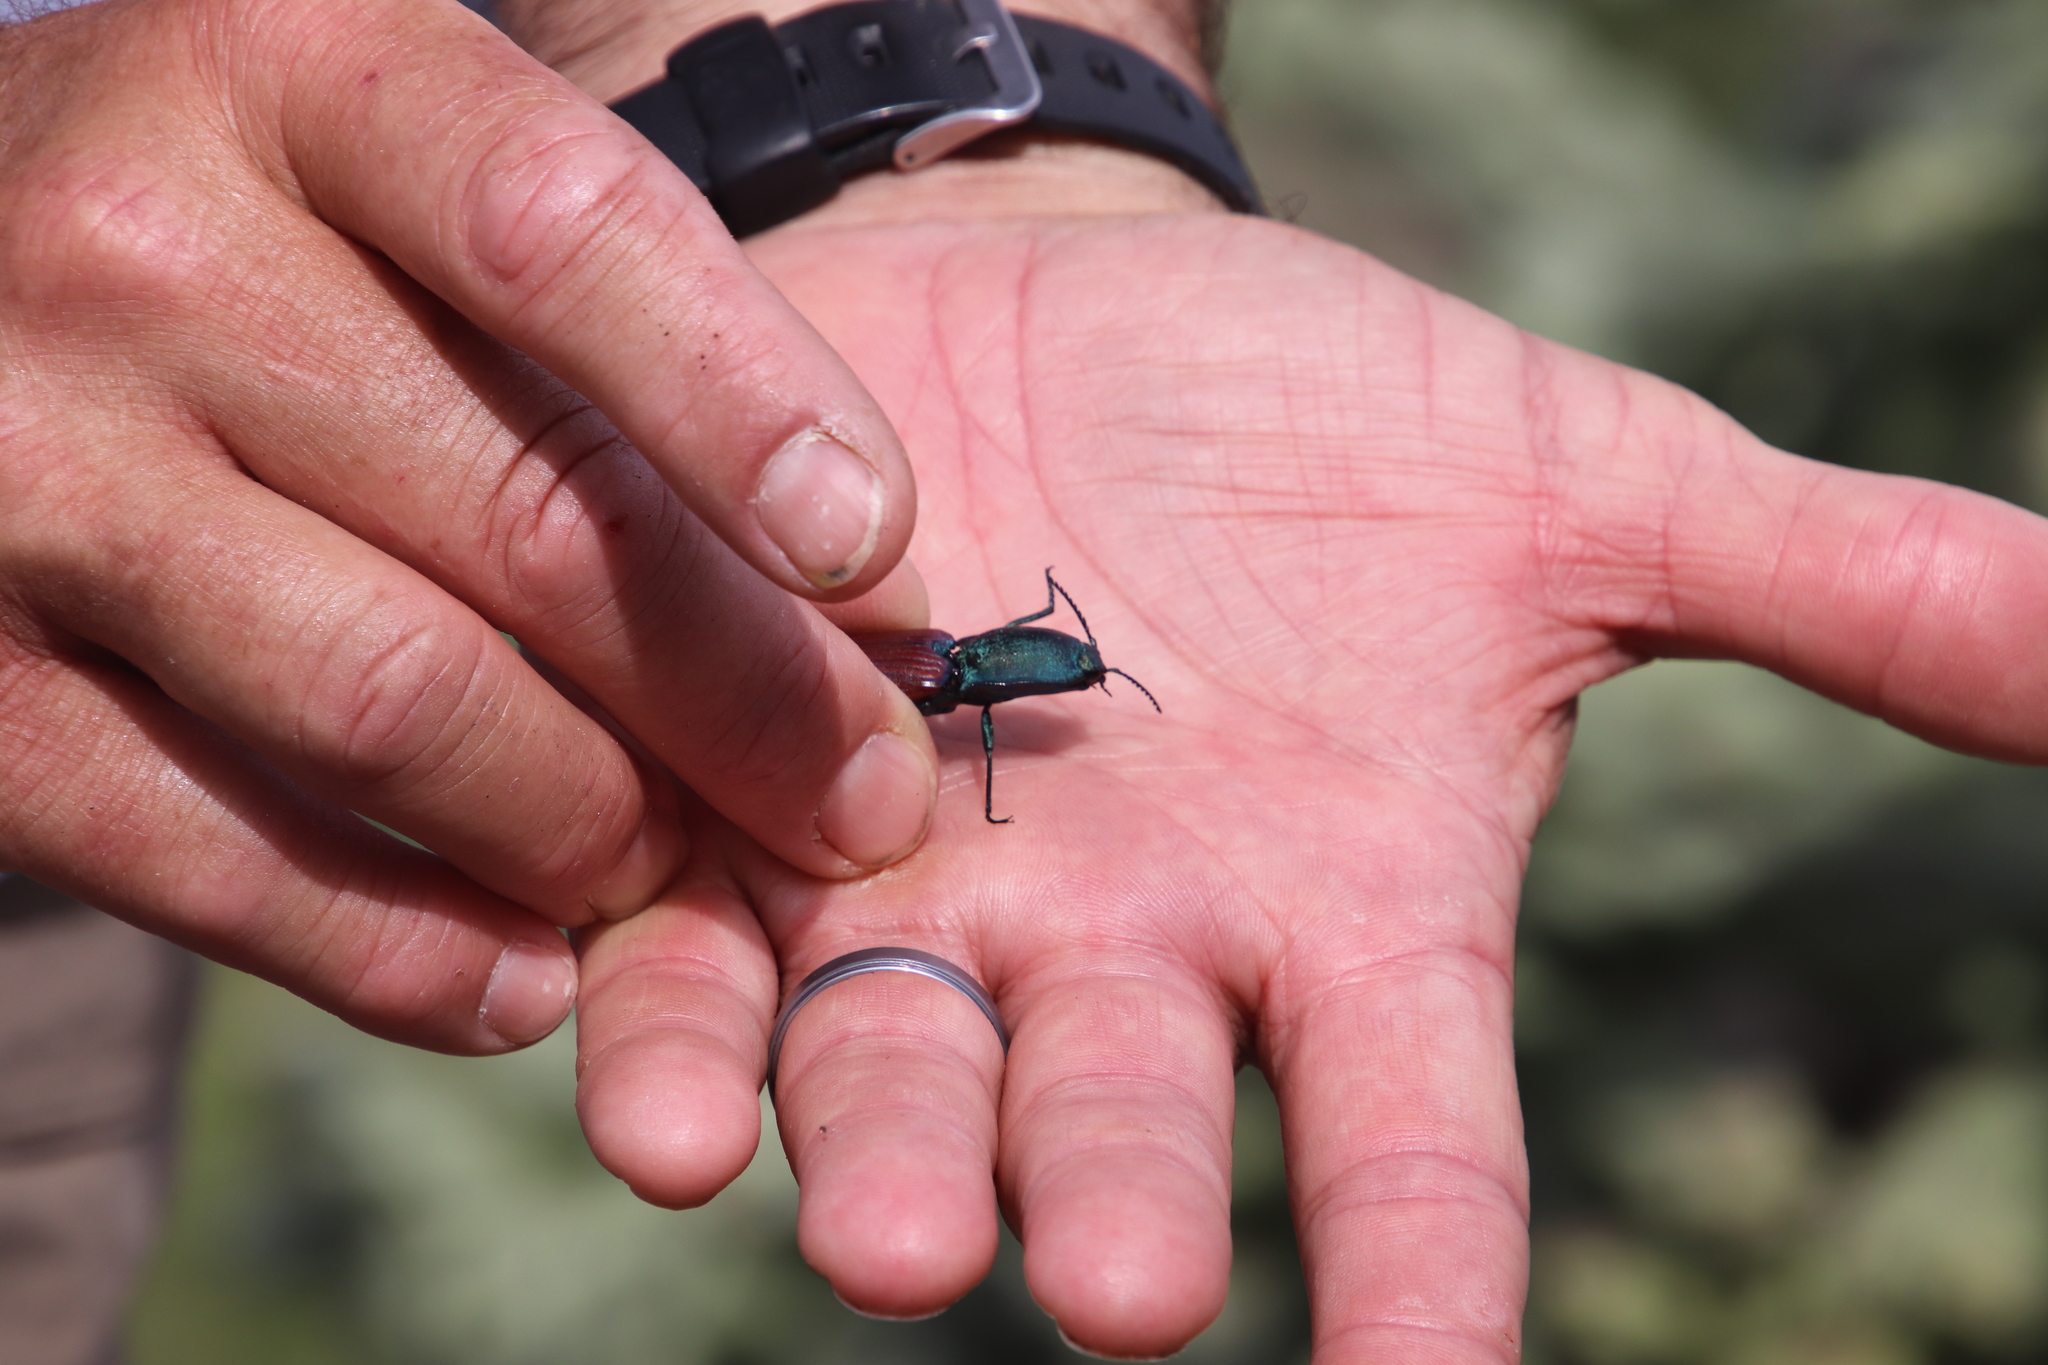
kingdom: Animalia
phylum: Arthropoda
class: Insecta
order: Coleoptera
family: Elateridae
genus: Chalcolepidius
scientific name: Chalcolepidius
